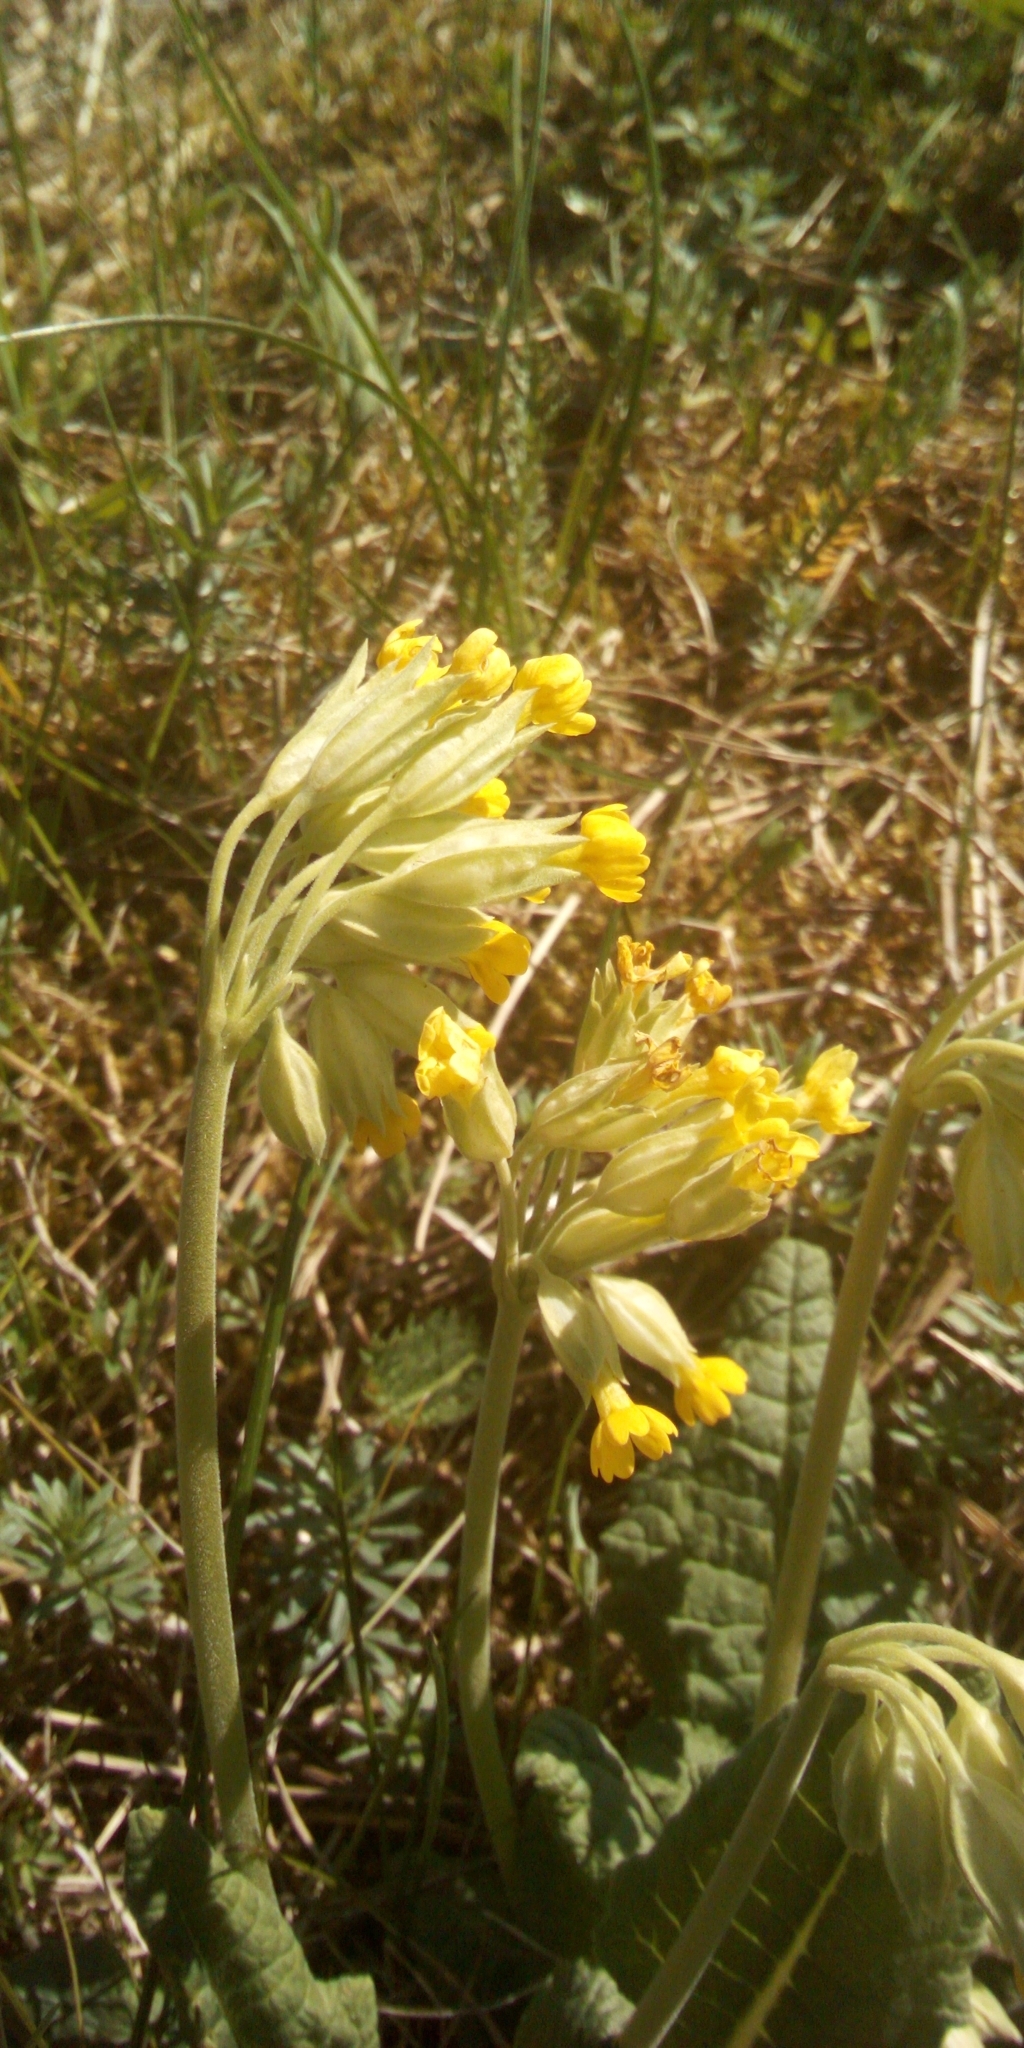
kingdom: Plantae
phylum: Tracheophyta
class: Magnoliopsida
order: Ericales
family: Primulaceae
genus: Primula
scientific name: Primula veris
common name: Cowslip
